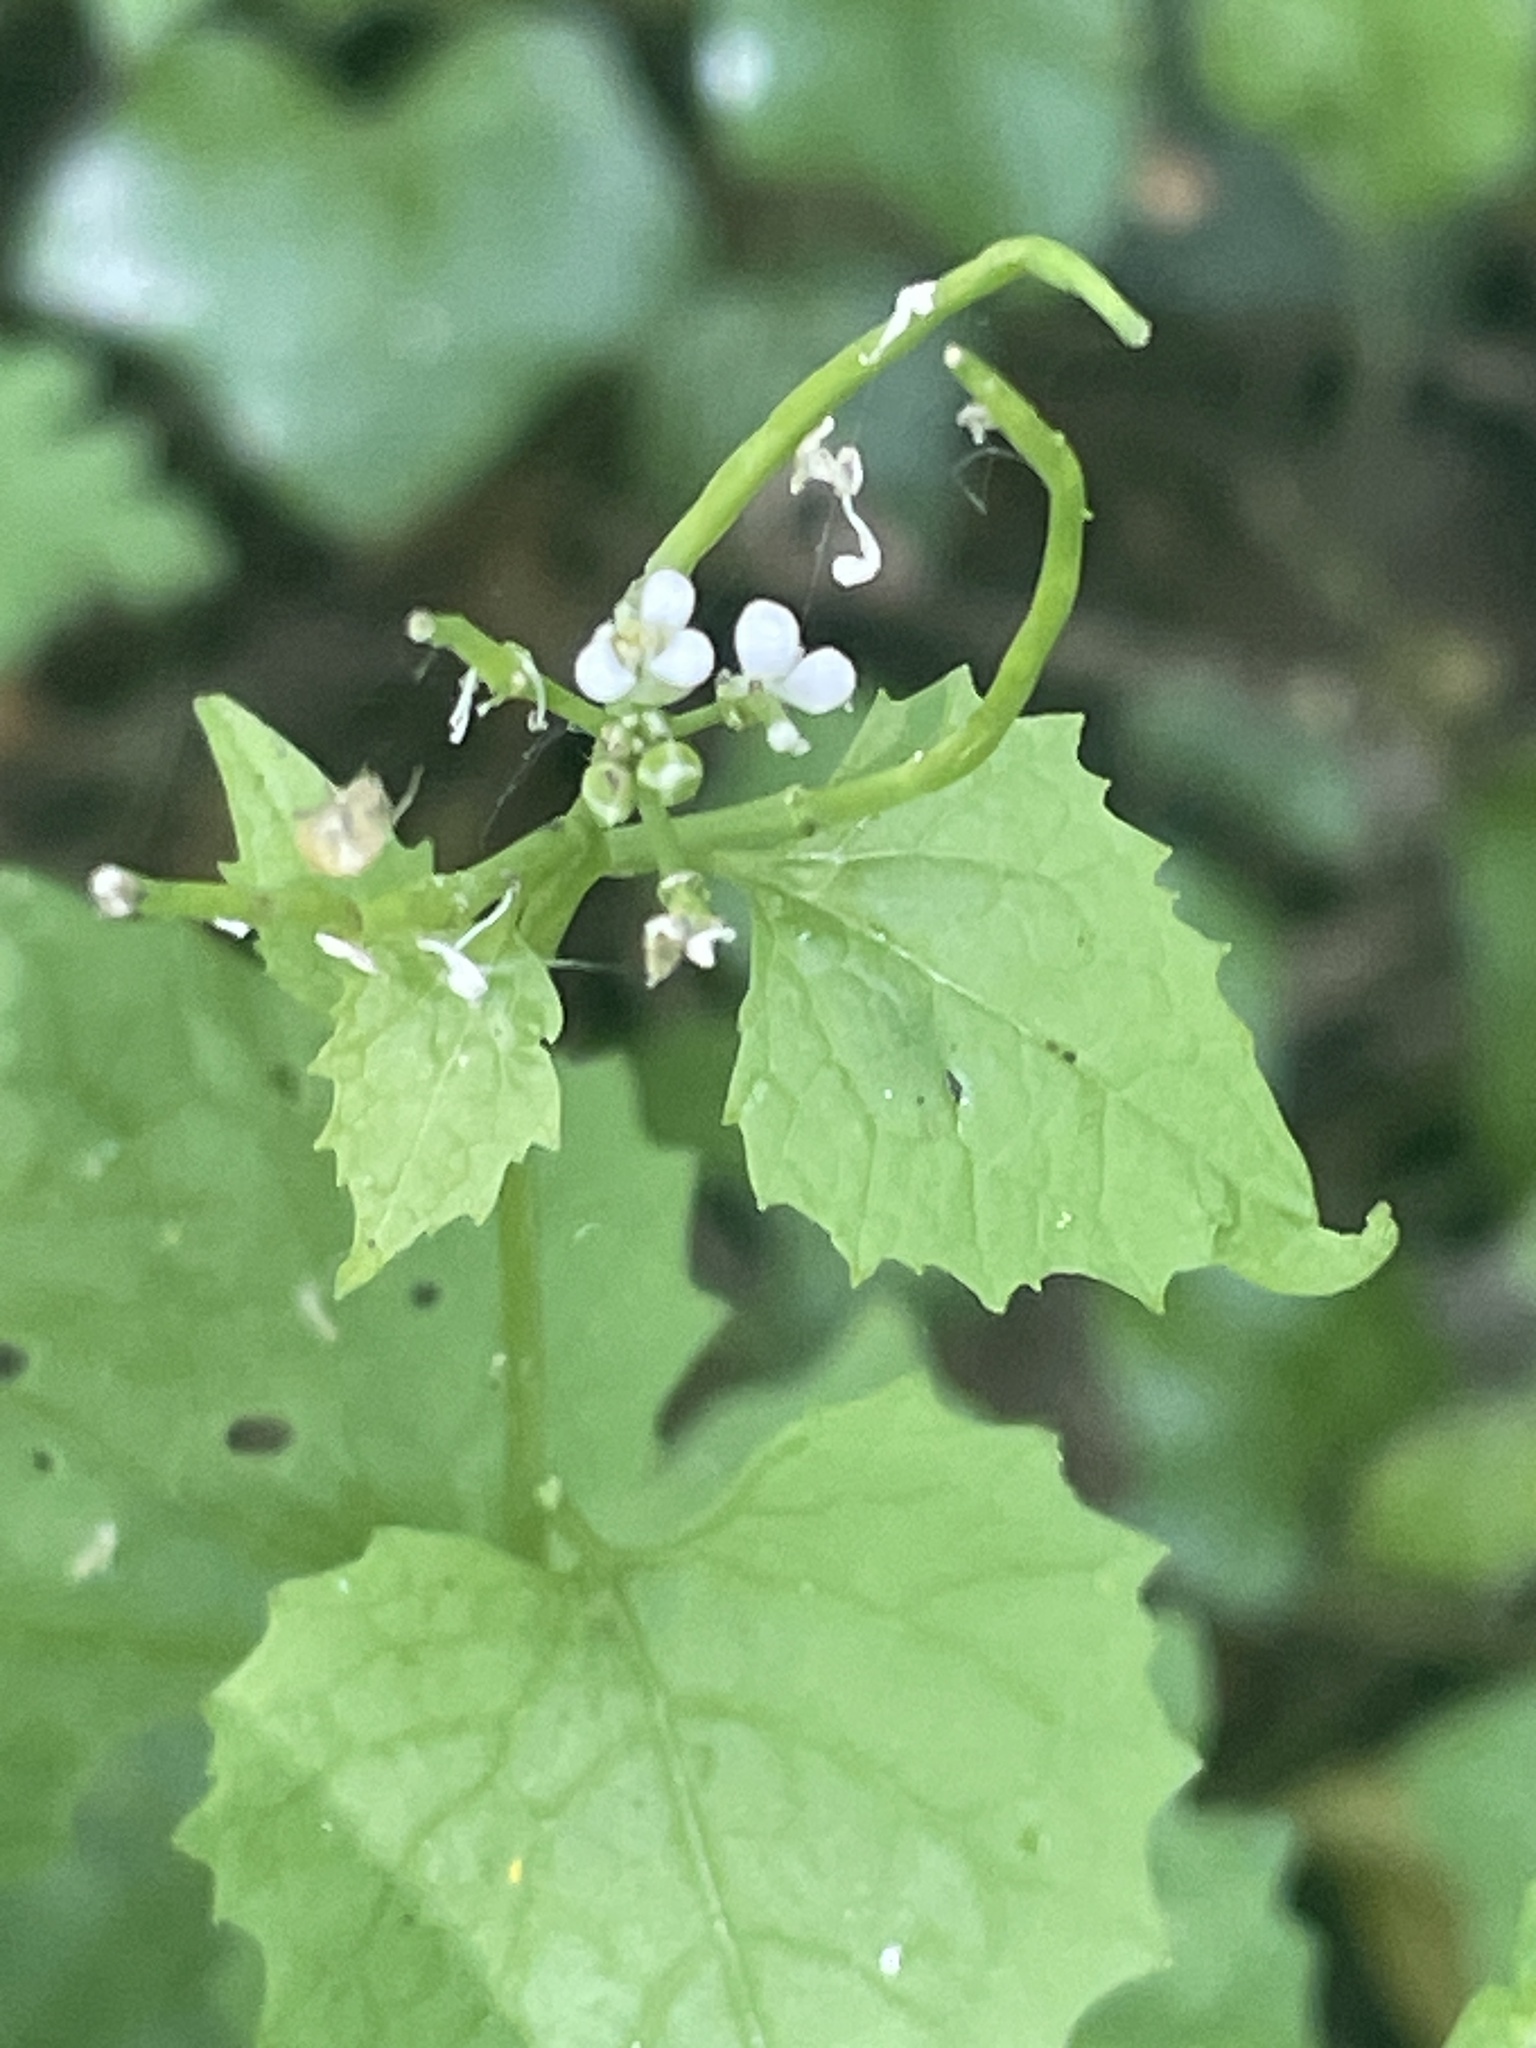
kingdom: Plantae
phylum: Tracheophyta
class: Magnoliopsida
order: Brassicales
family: Brassicaceae
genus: Alliaria
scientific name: Alliaria petiolata
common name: Garlic mustard
